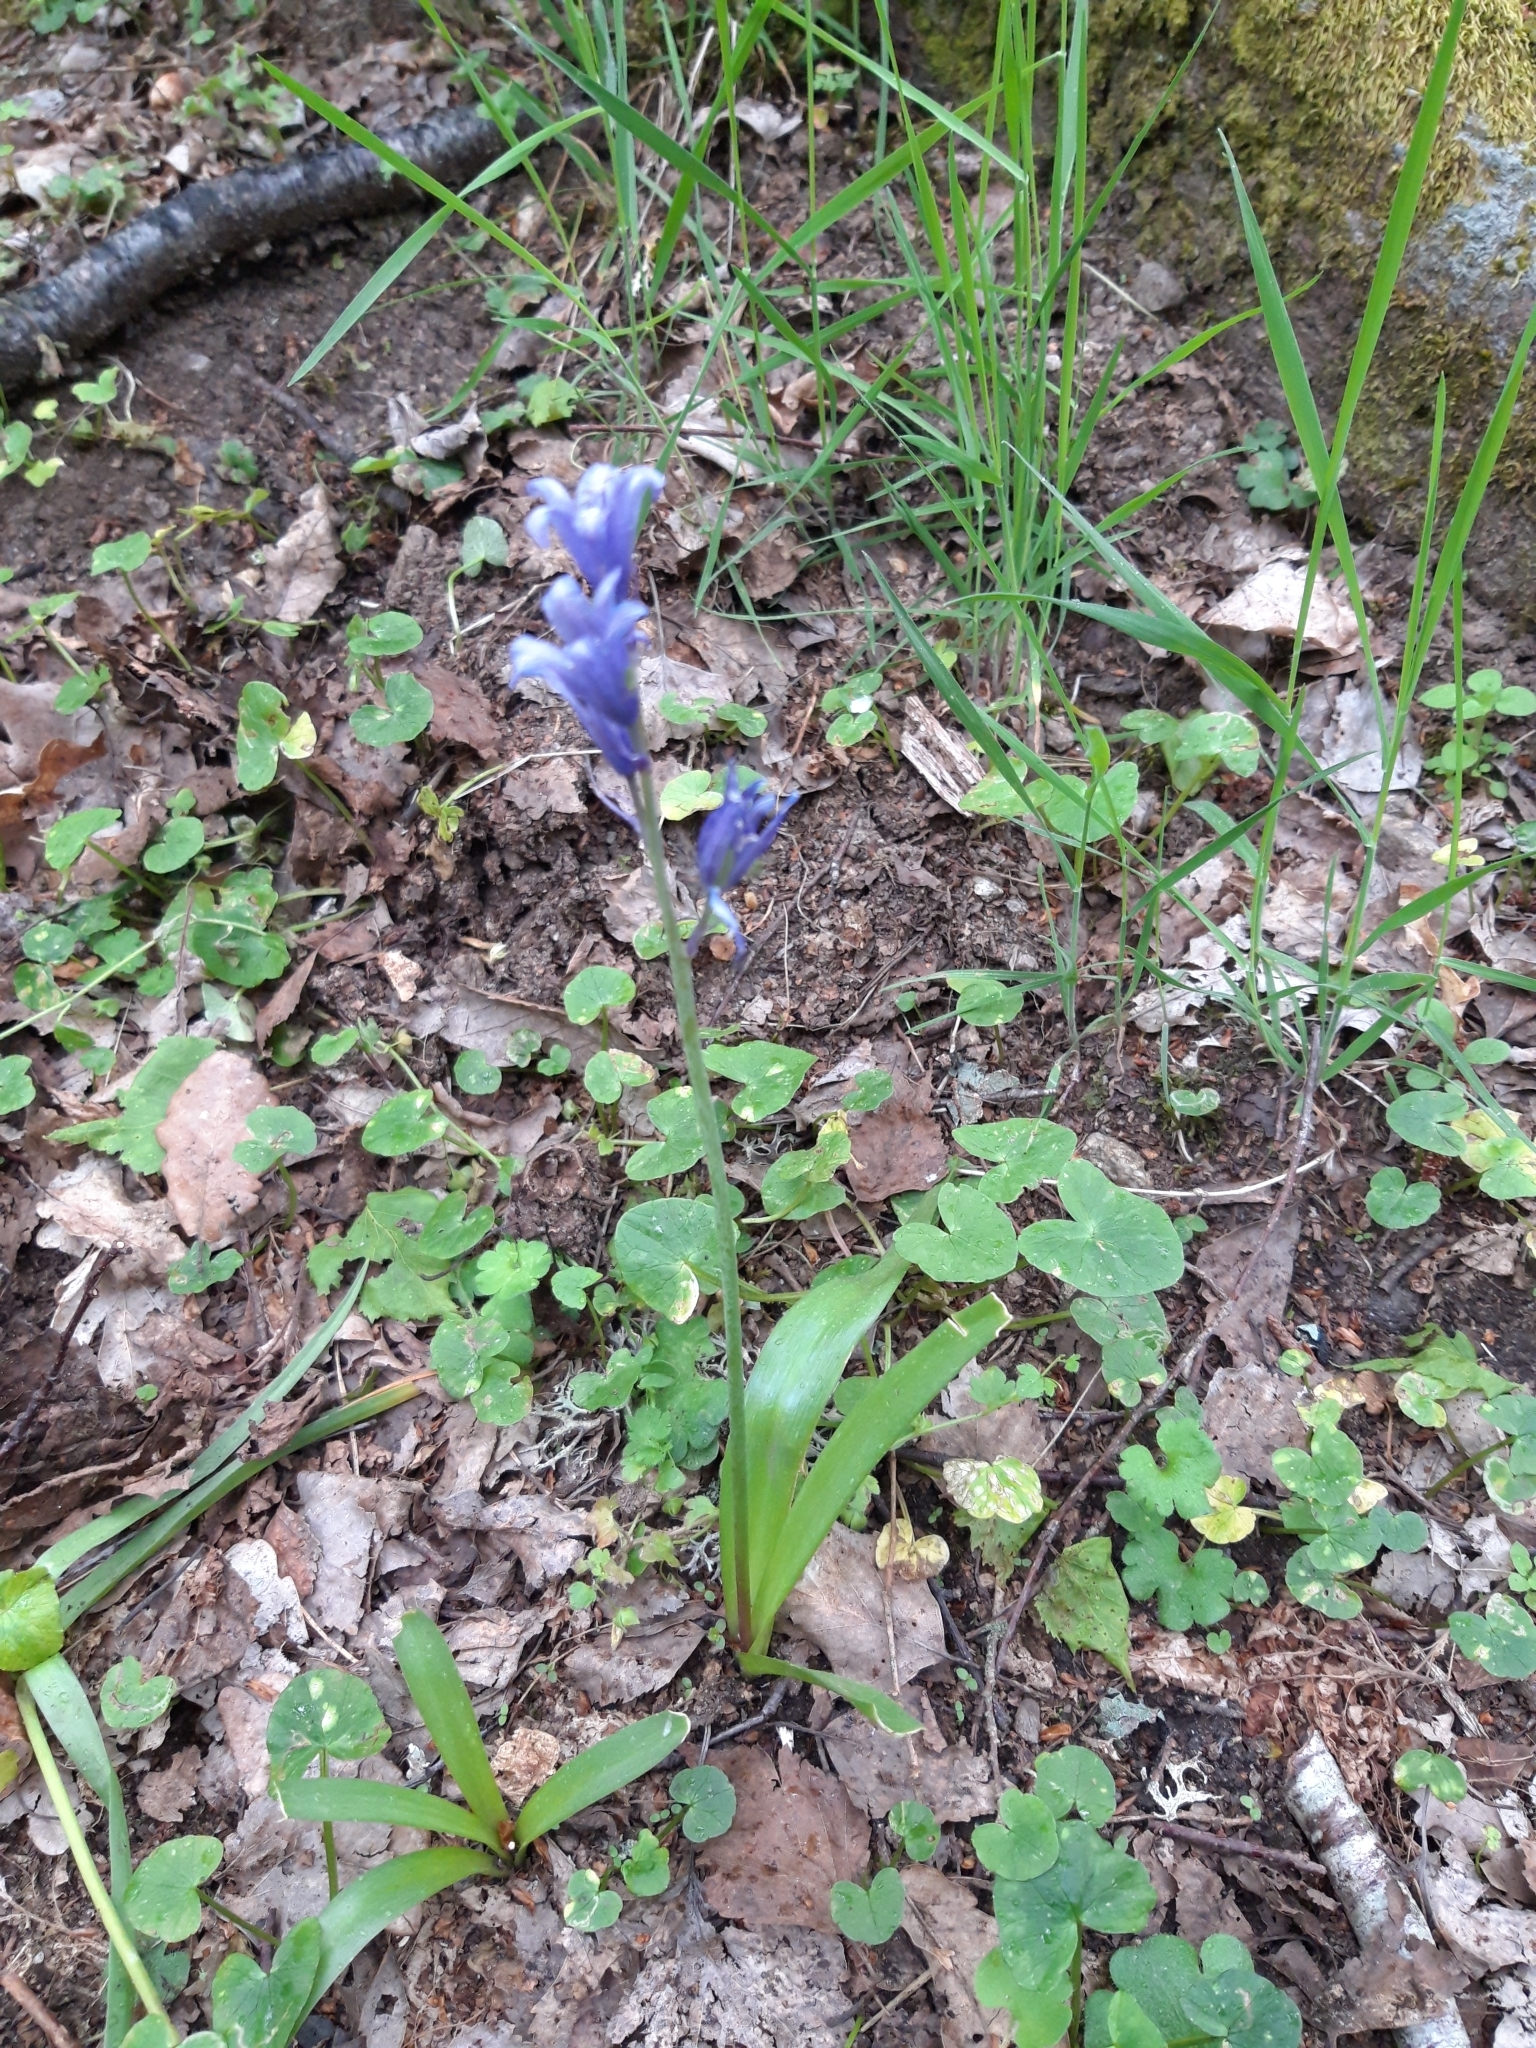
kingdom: Plantae
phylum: Tracheophyta
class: Liliopsida
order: Asparagales
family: Asparagaceae
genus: Hyacinthoides
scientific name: Hyacinthoides hispanica
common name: Spanish bluebell
